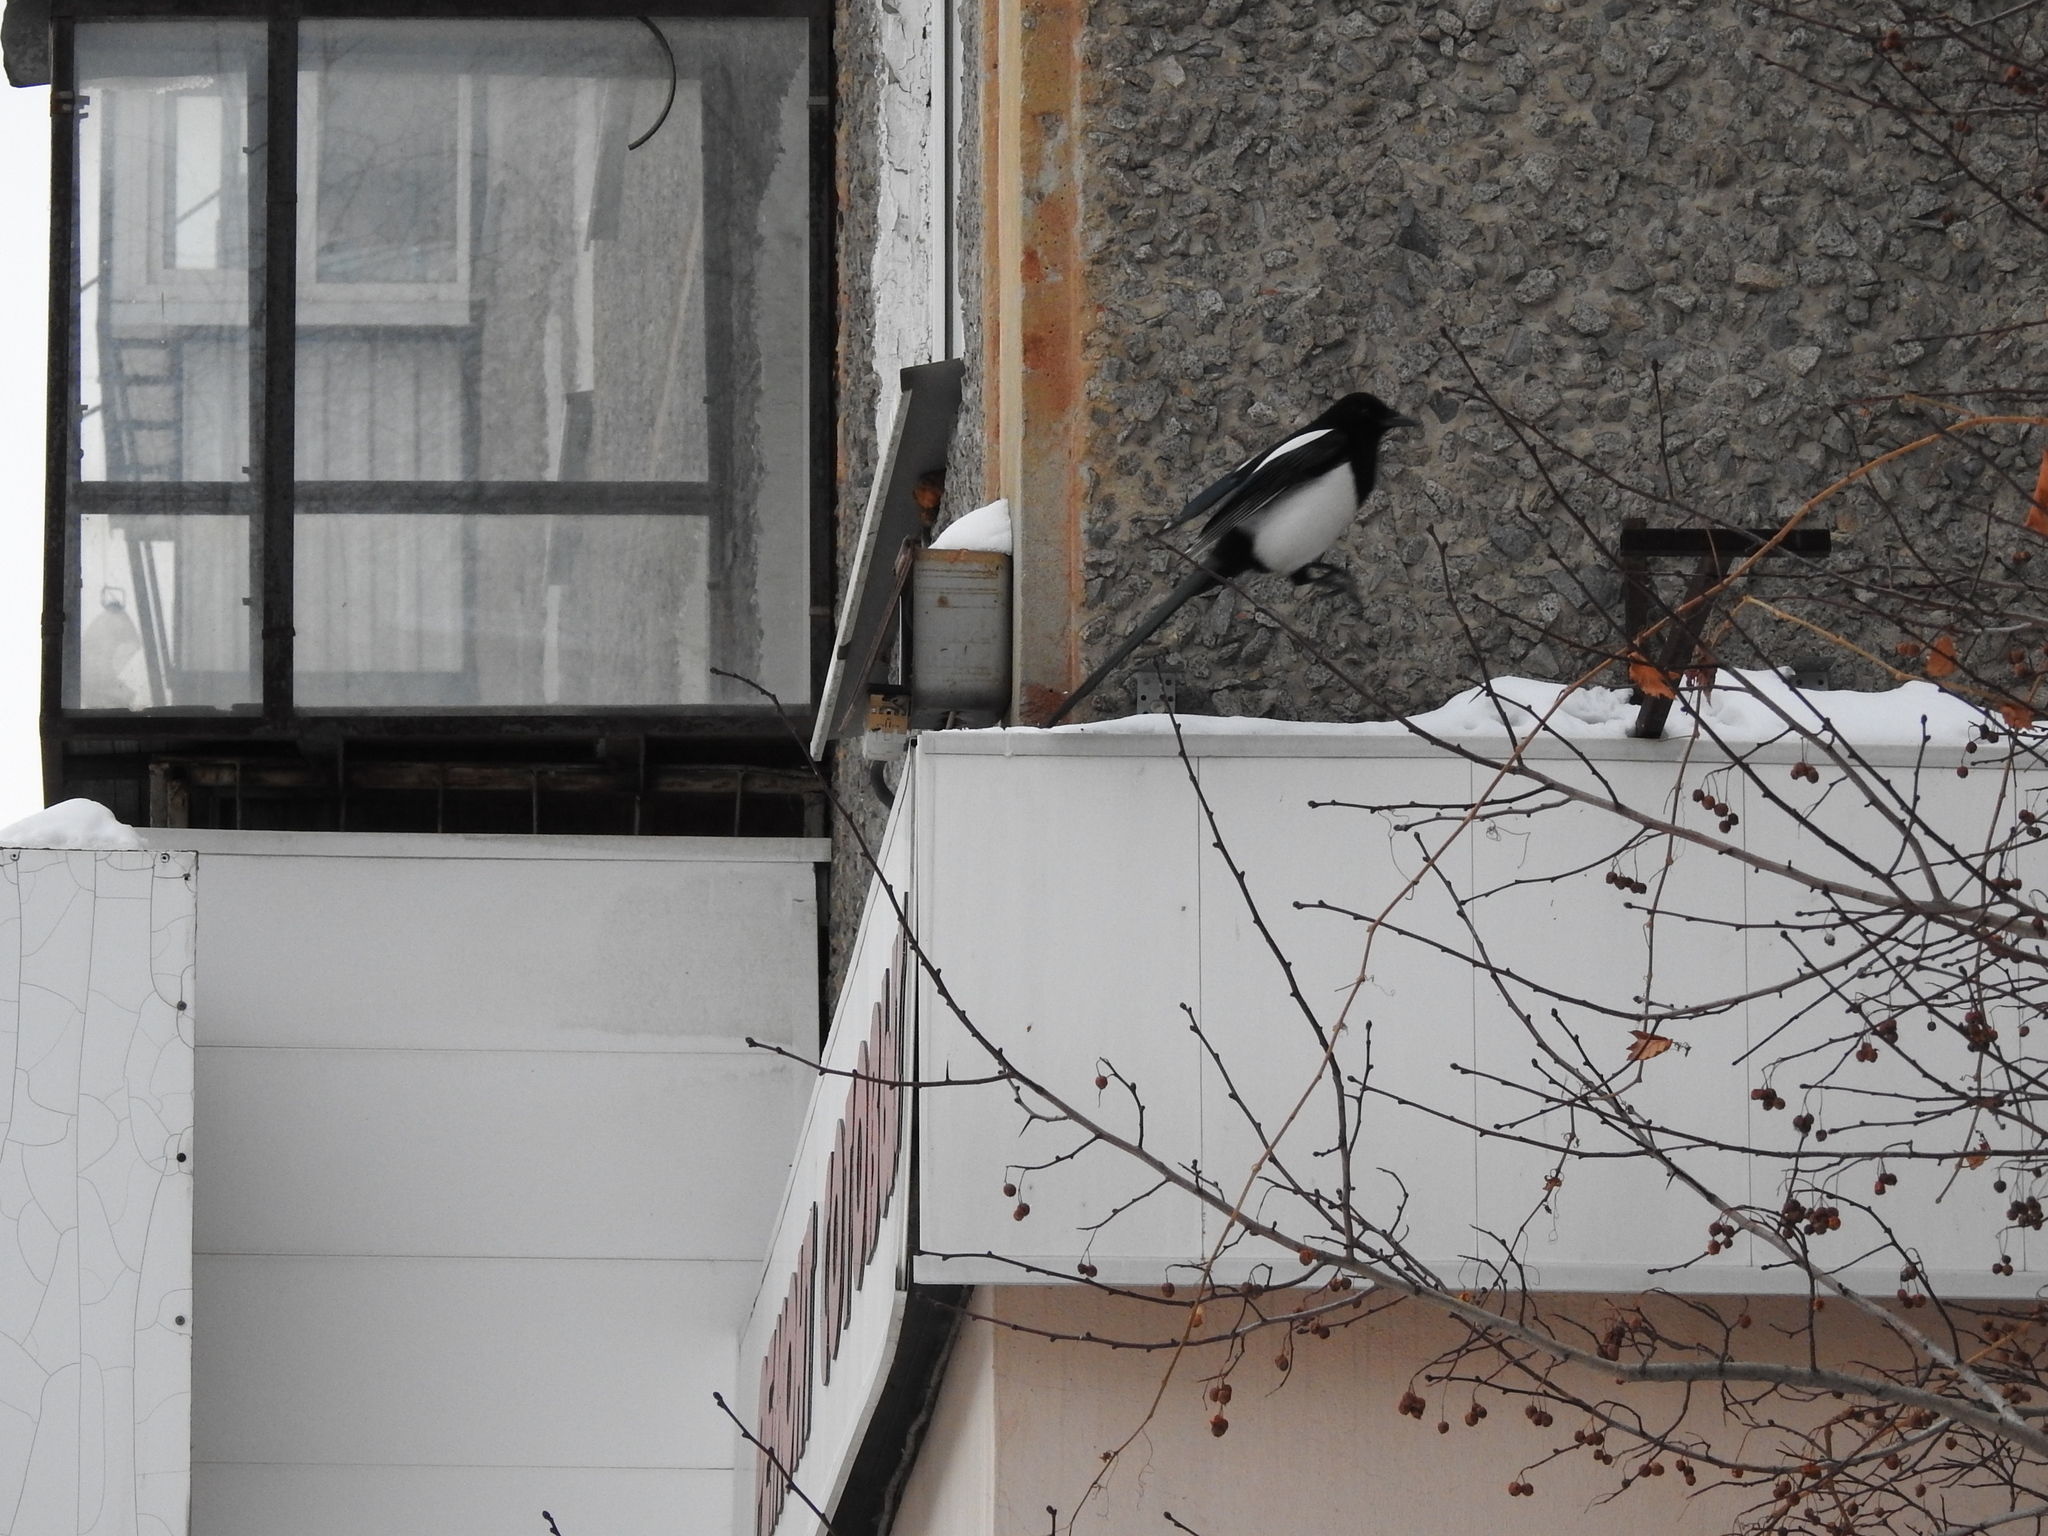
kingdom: Animalia
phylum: Chordata
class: Aves
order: Passeriformes
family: Corvidae
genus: Pica
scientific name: Pica pica
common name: Eurasian magpie
